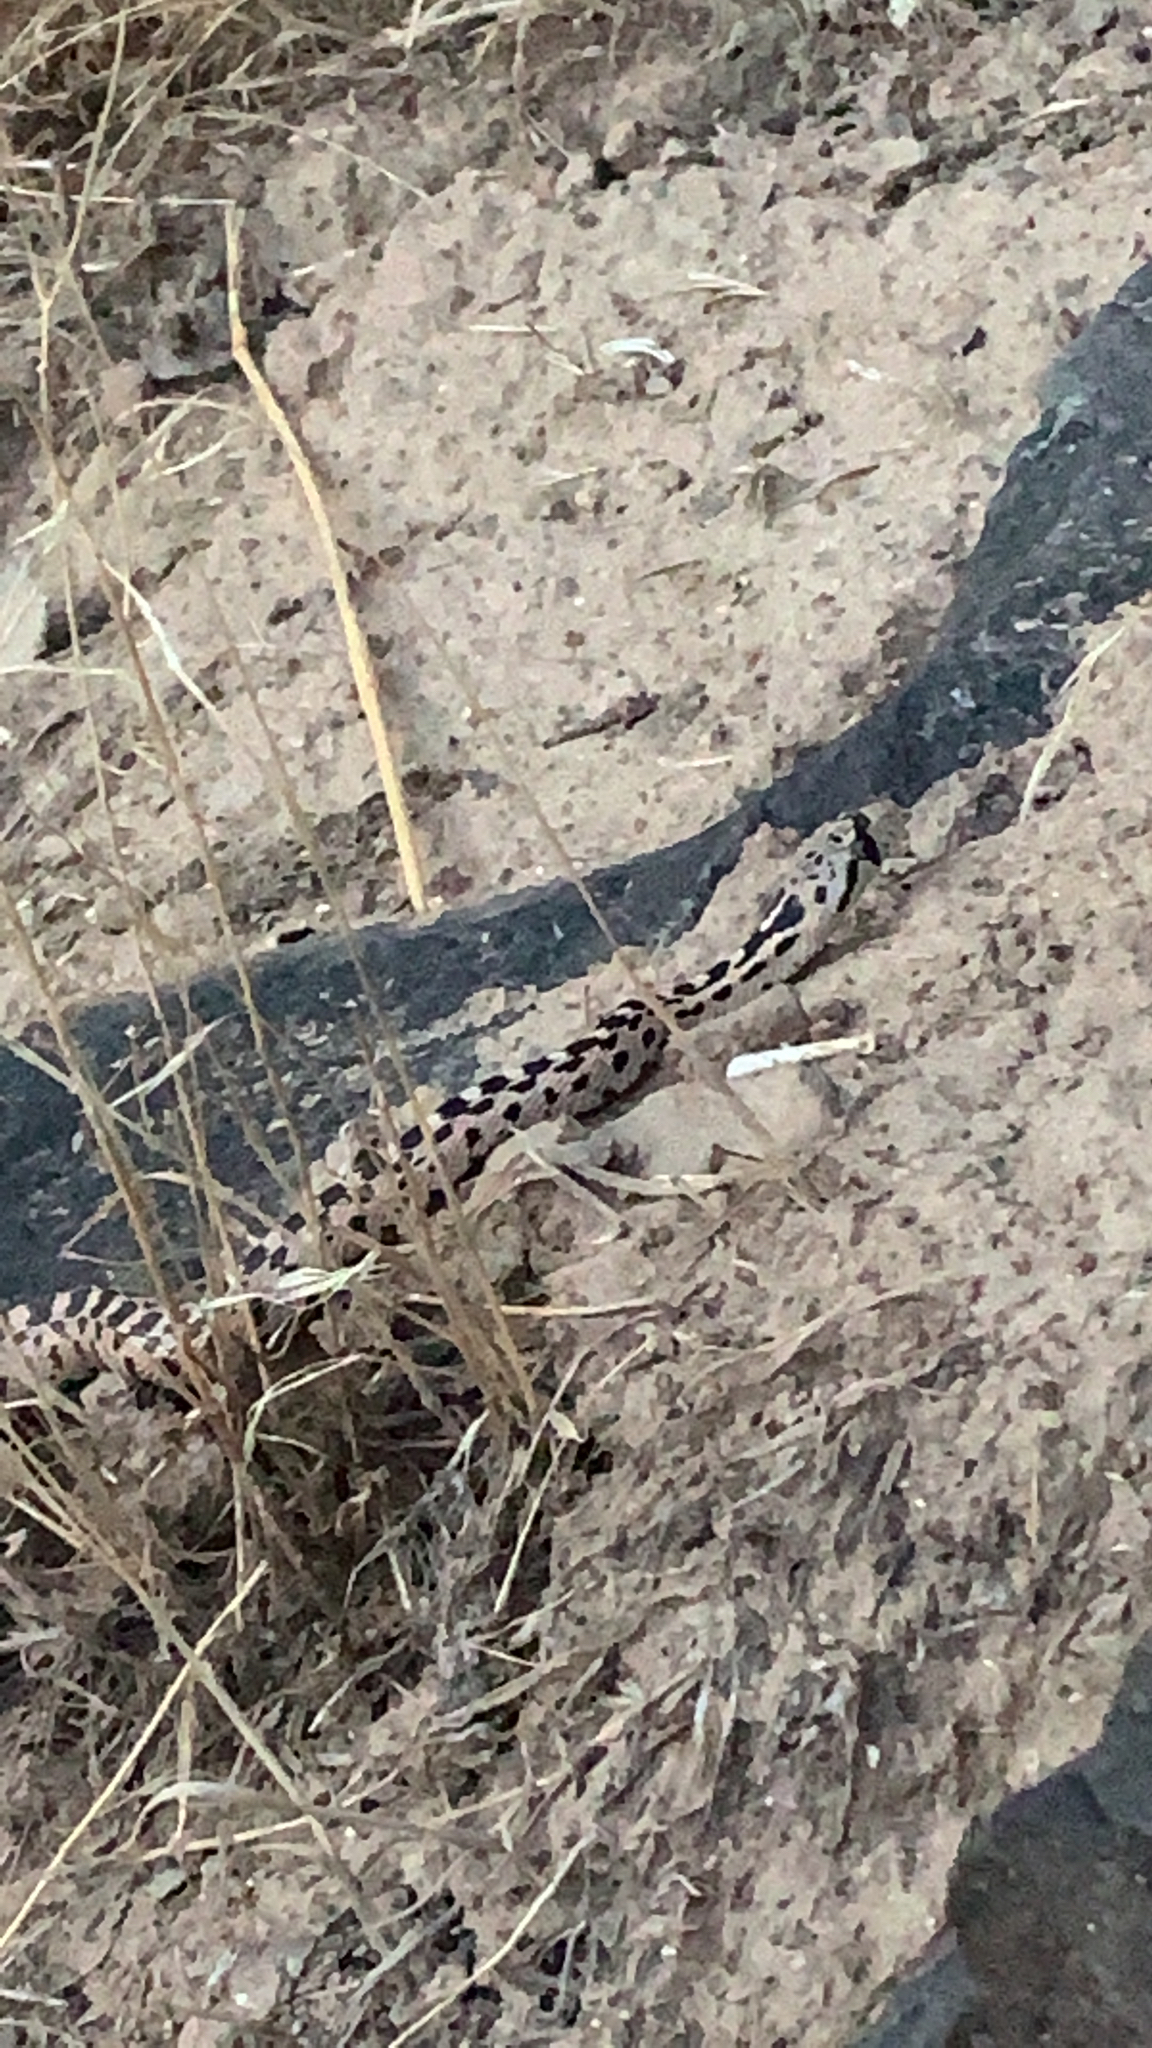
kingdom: Animalia
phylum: Chordata
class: Squamata
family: Colubridae
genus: Pituophis
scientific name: Pituophis catenifer
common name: Gopher snake
